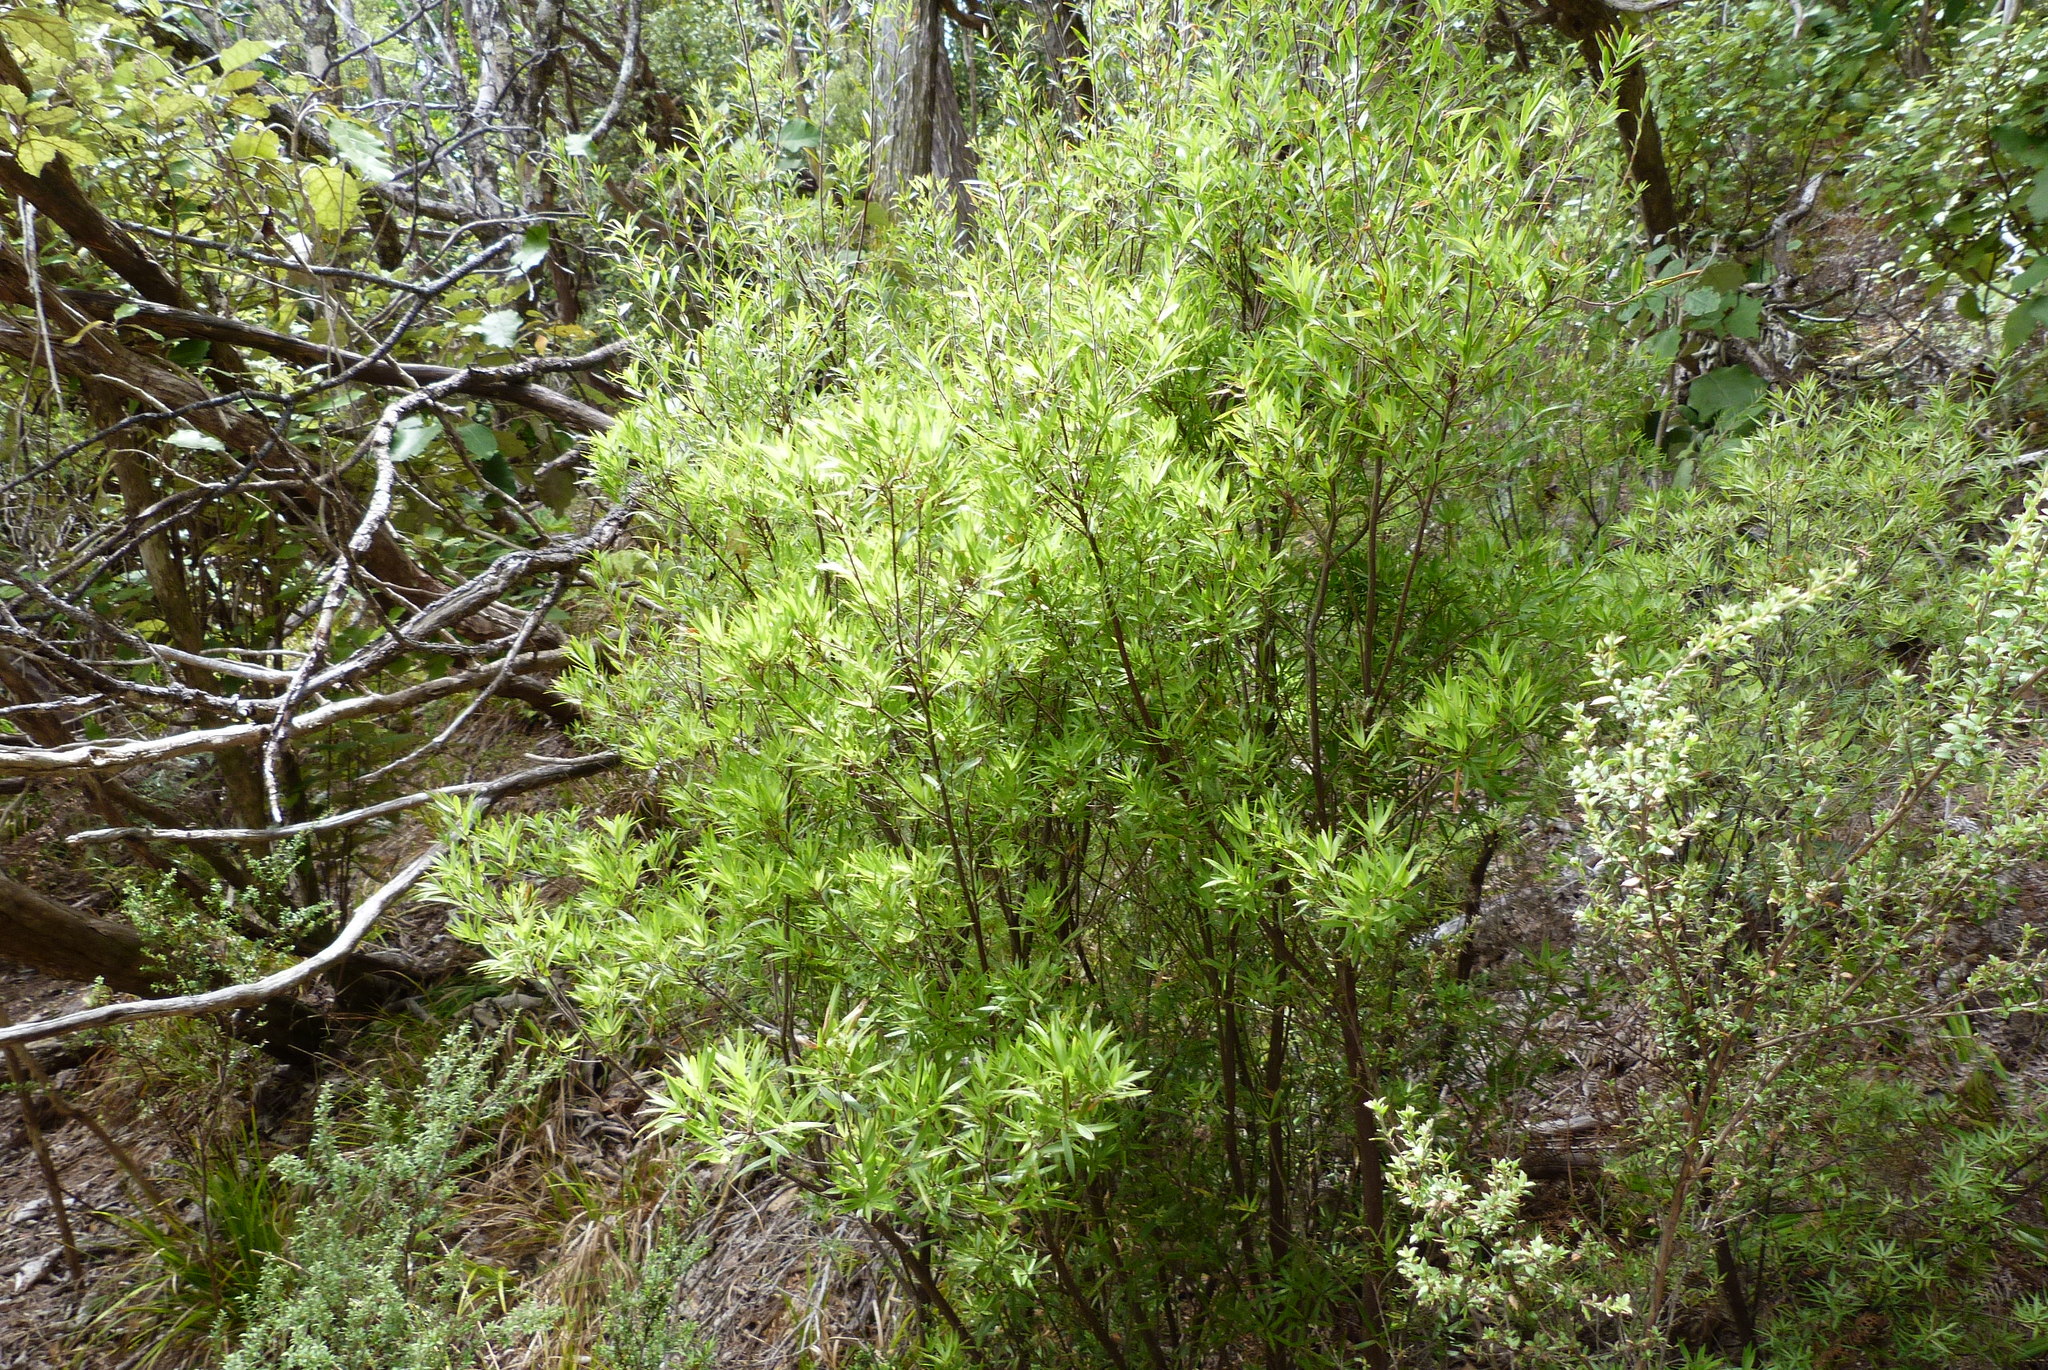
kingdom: Plantae
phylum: Tracheophyta
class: Magnoliopsida
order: Ericales
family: Ericaceae
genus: Leucopogon
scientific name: Leucopogon fasciculatus
